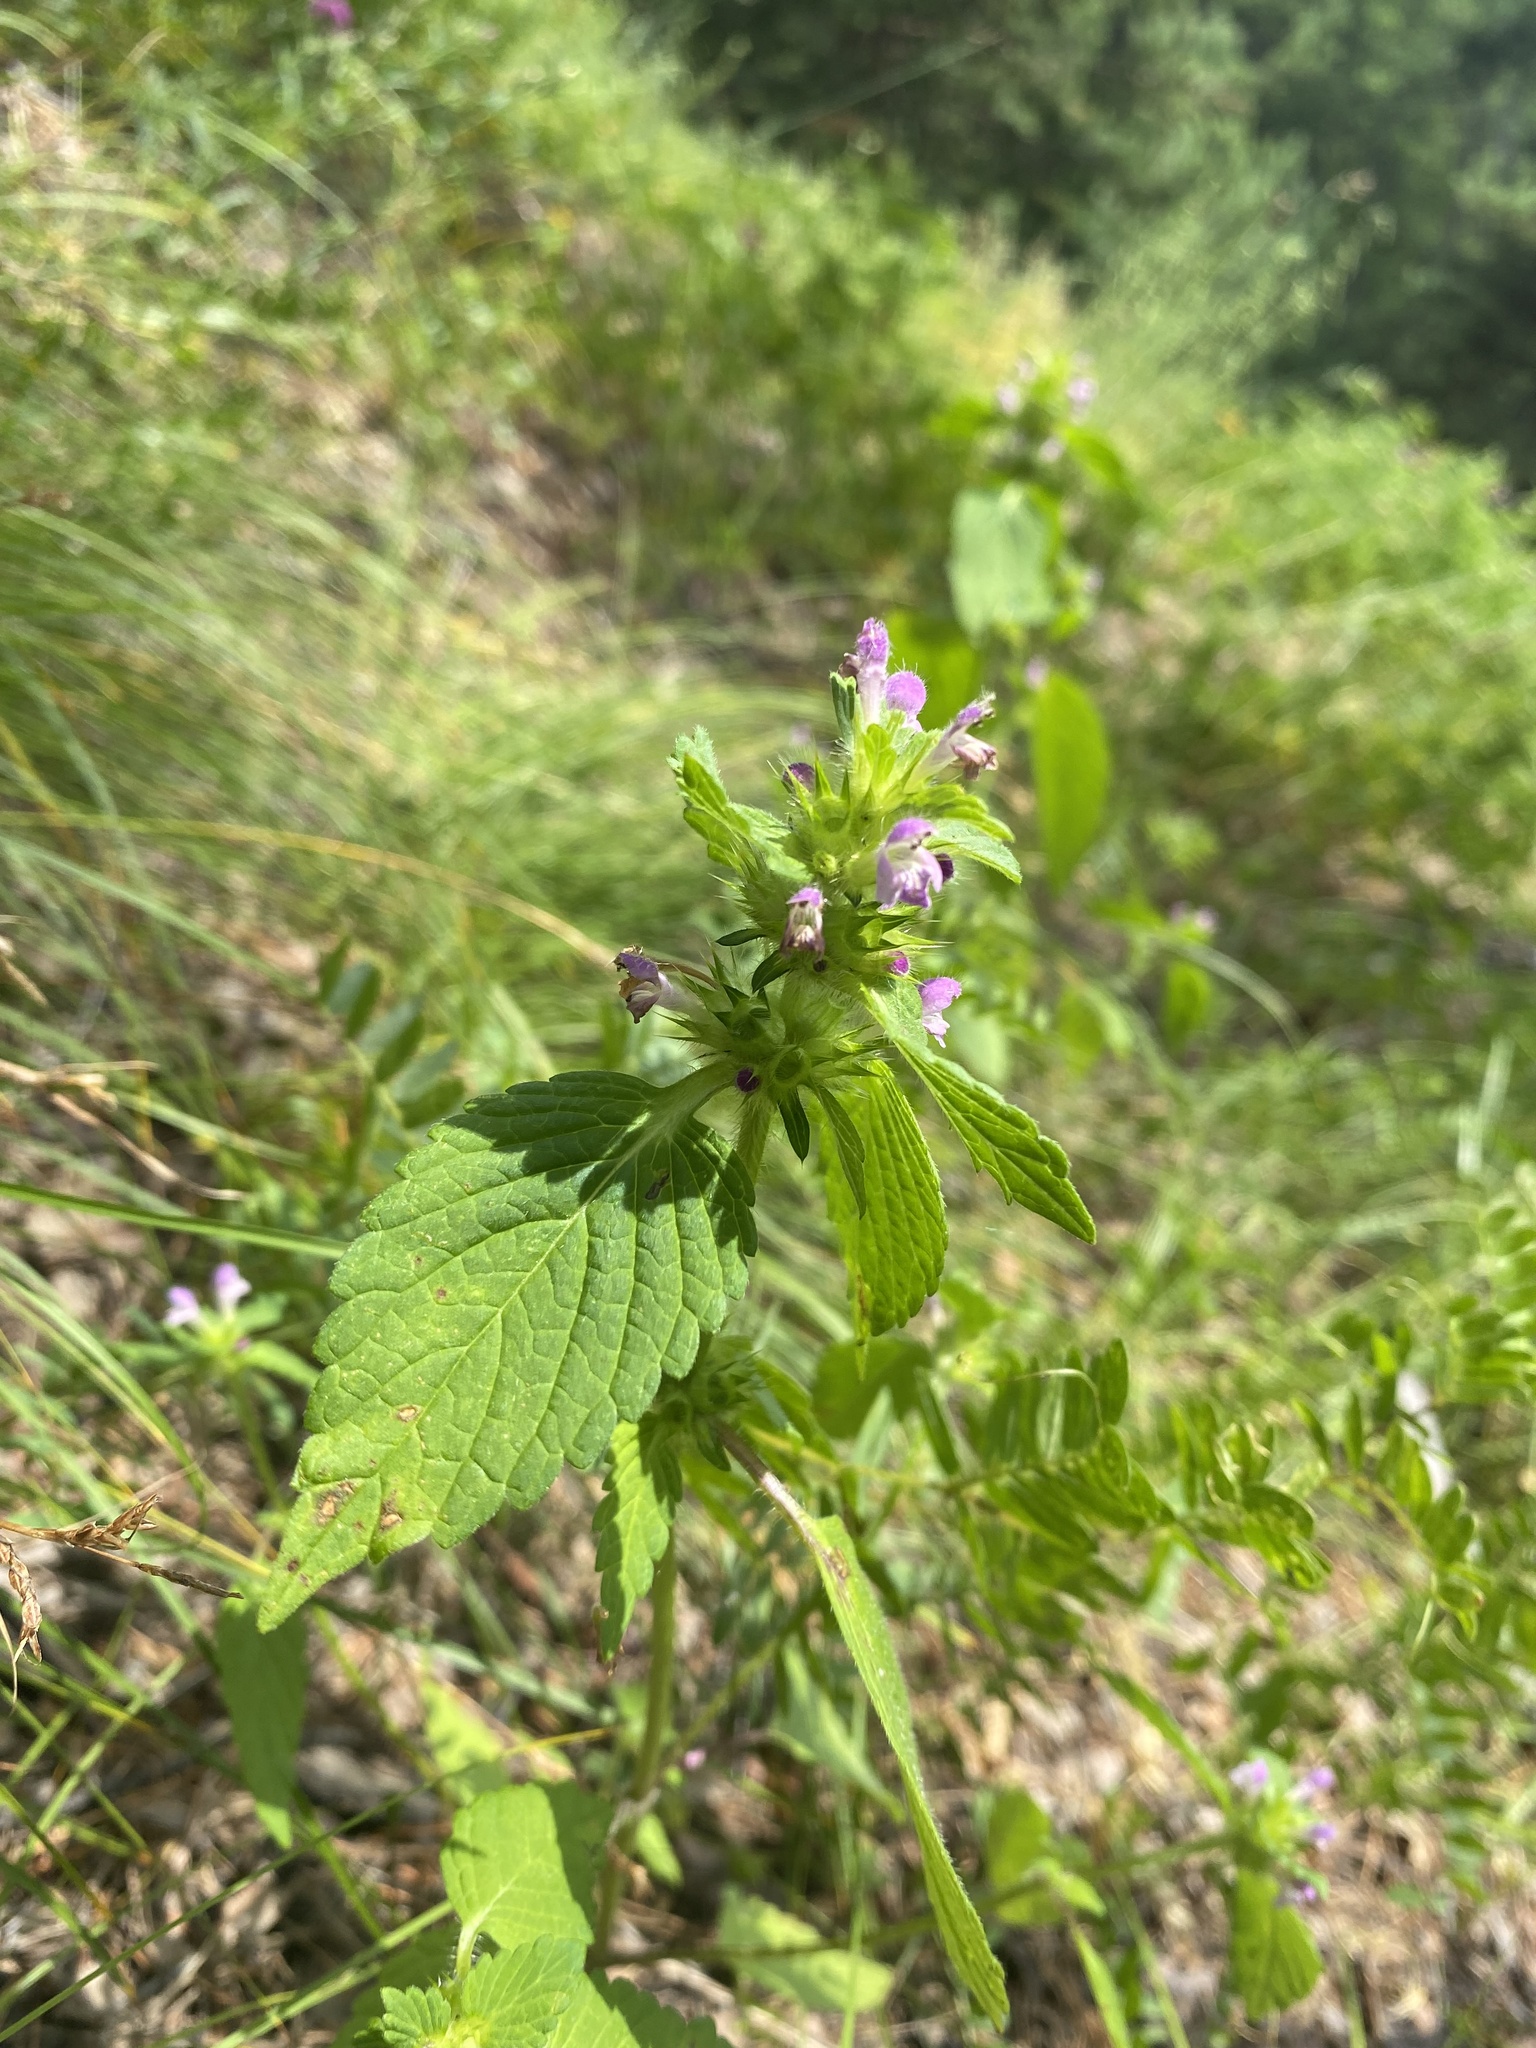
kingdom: Plantae
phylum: Tracheophyta
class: Magnoliopsida
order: Lamiales
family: Lamiaceae
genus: Galeopsis
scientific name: Galeopsis bifida
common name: Bifid hemp-nettle
